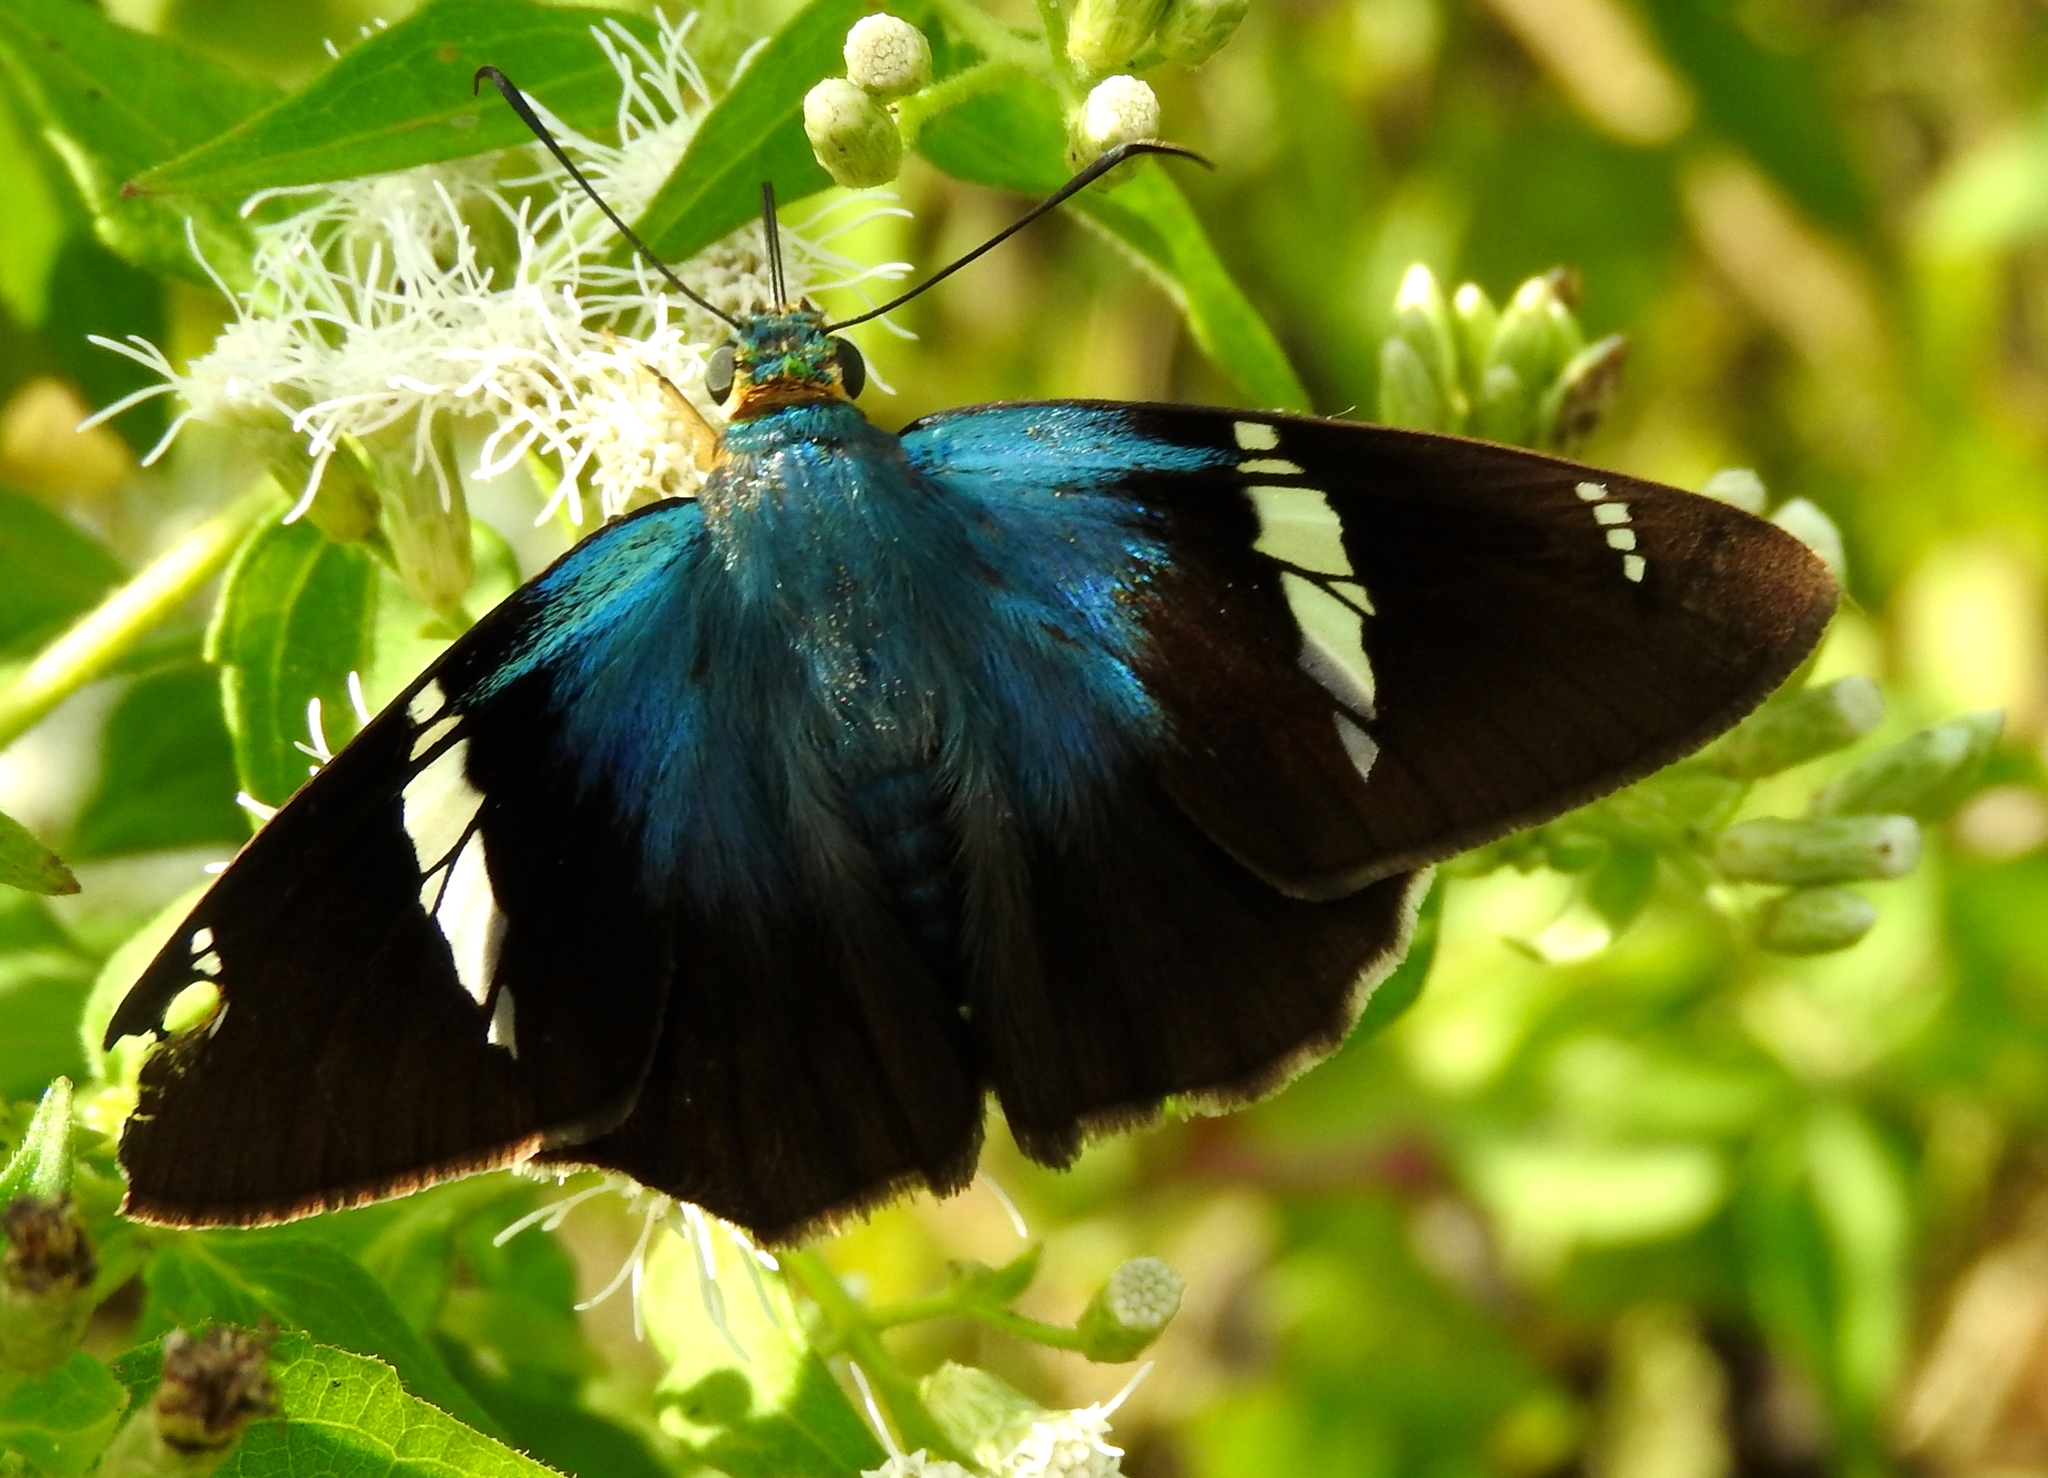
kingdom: Animalia
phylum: Arthropoda
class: Insecta
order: Lepidoptera
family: Hesperiidae
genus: Astraptes
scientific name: Astraptes fulgerator
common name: Two-barred flasher
